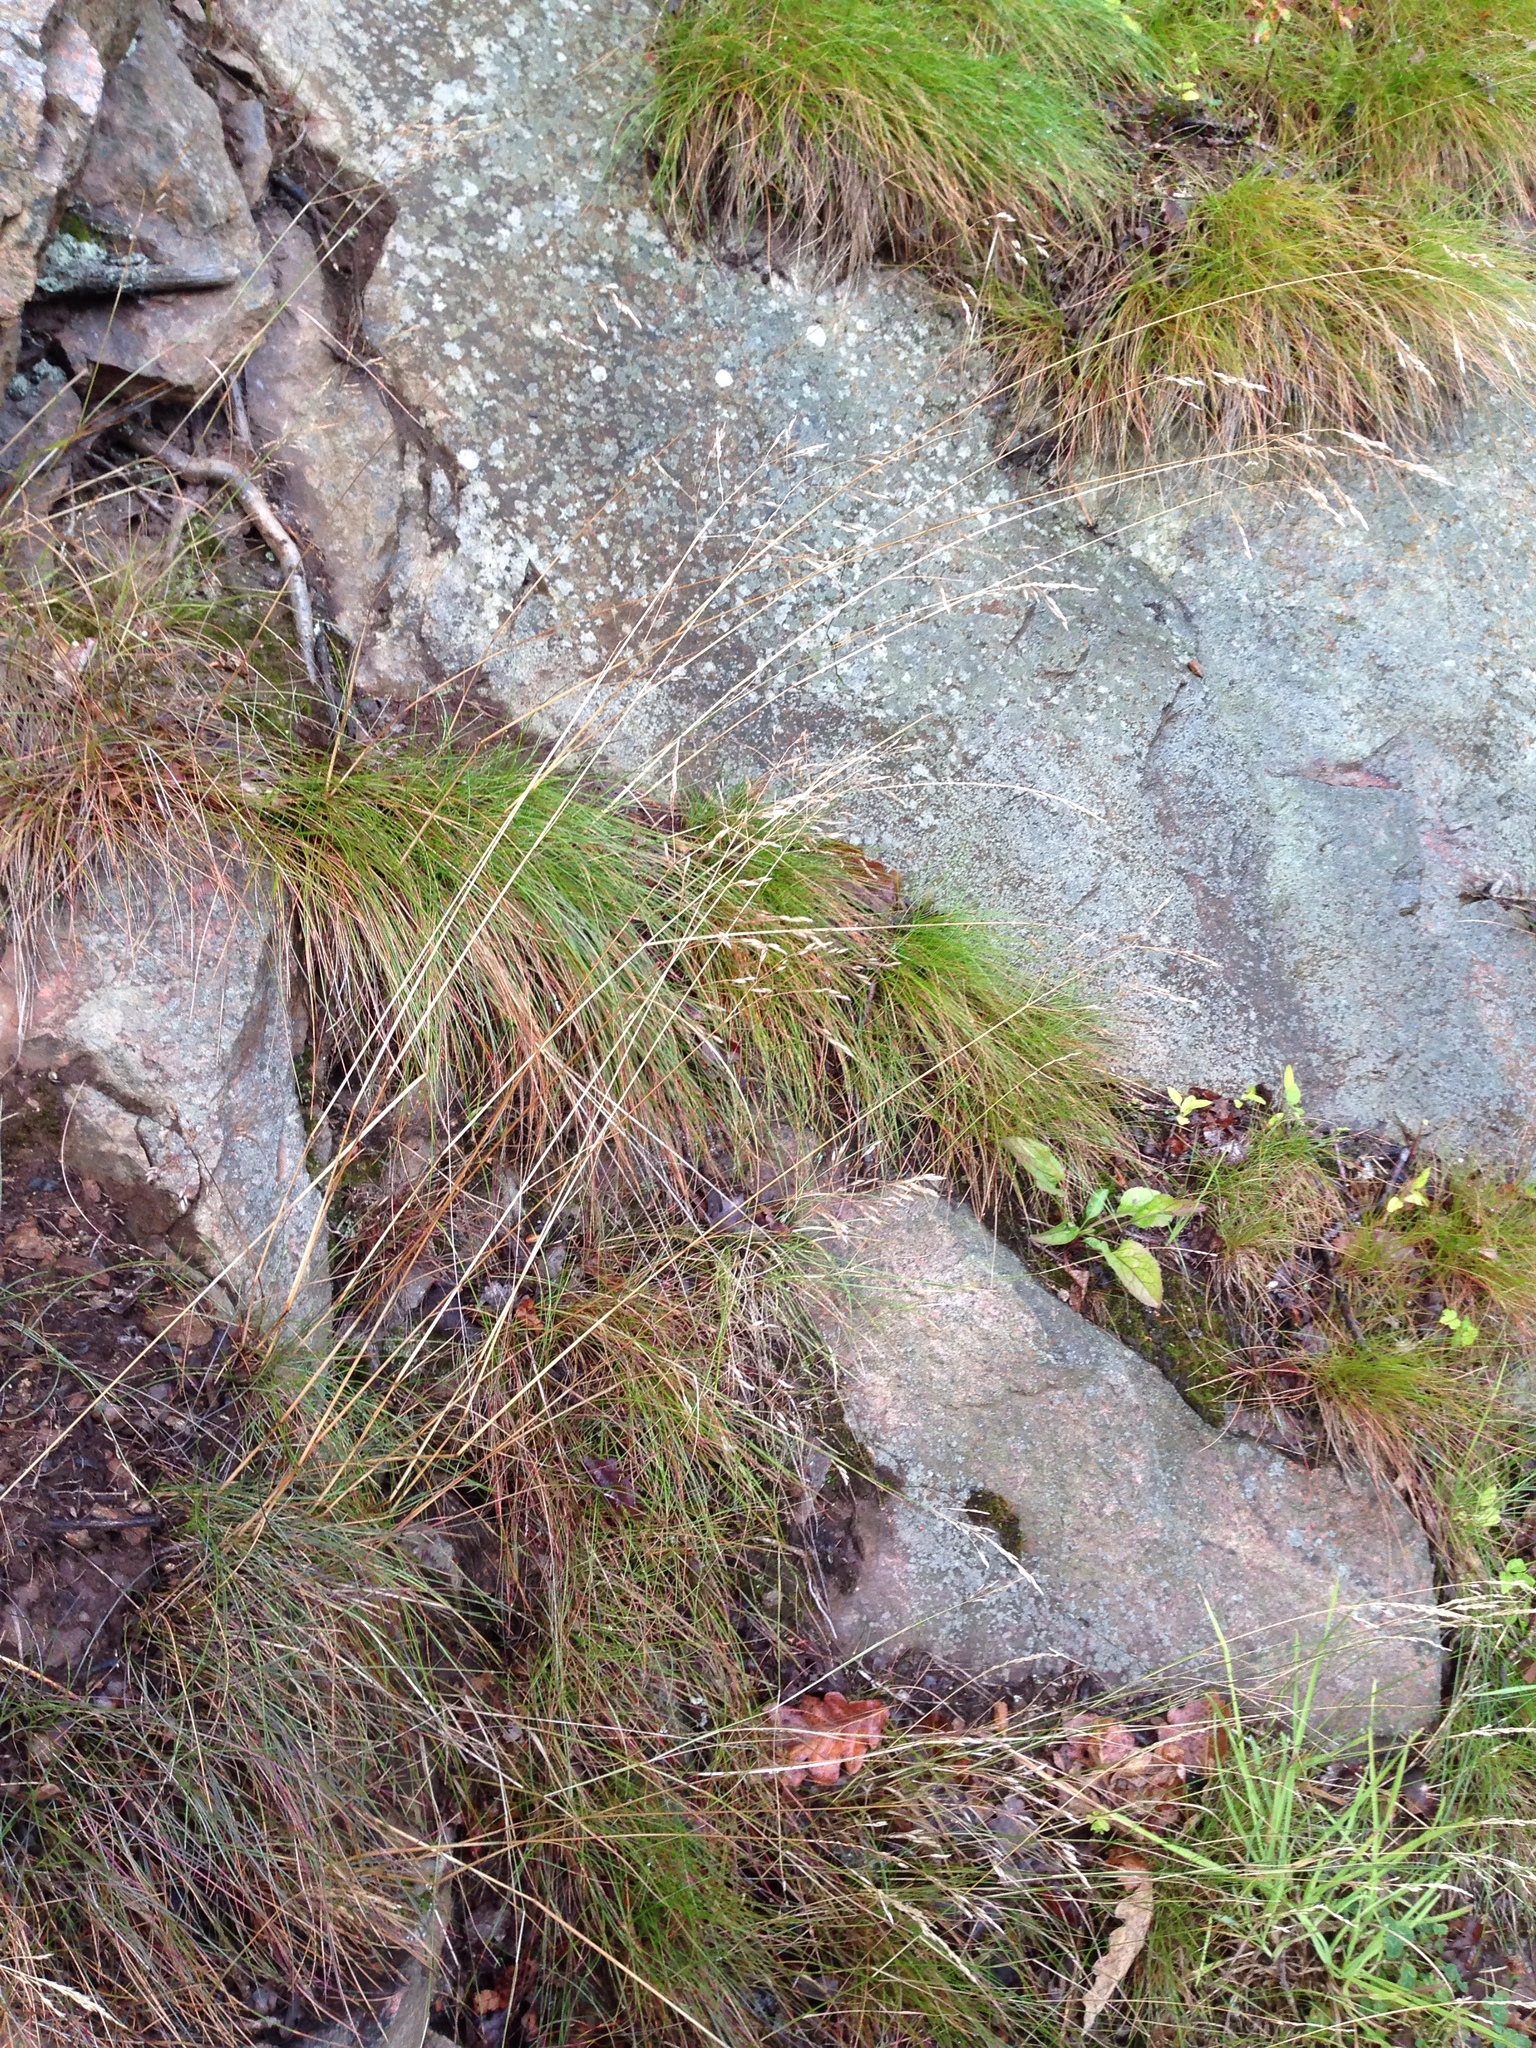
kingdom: Plantae
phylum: Tracheophyta
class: Liliopsida
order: Poales
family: Poaceae
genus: Avenella
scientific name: Avenella flexuosa
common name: Wavy hairgrass
